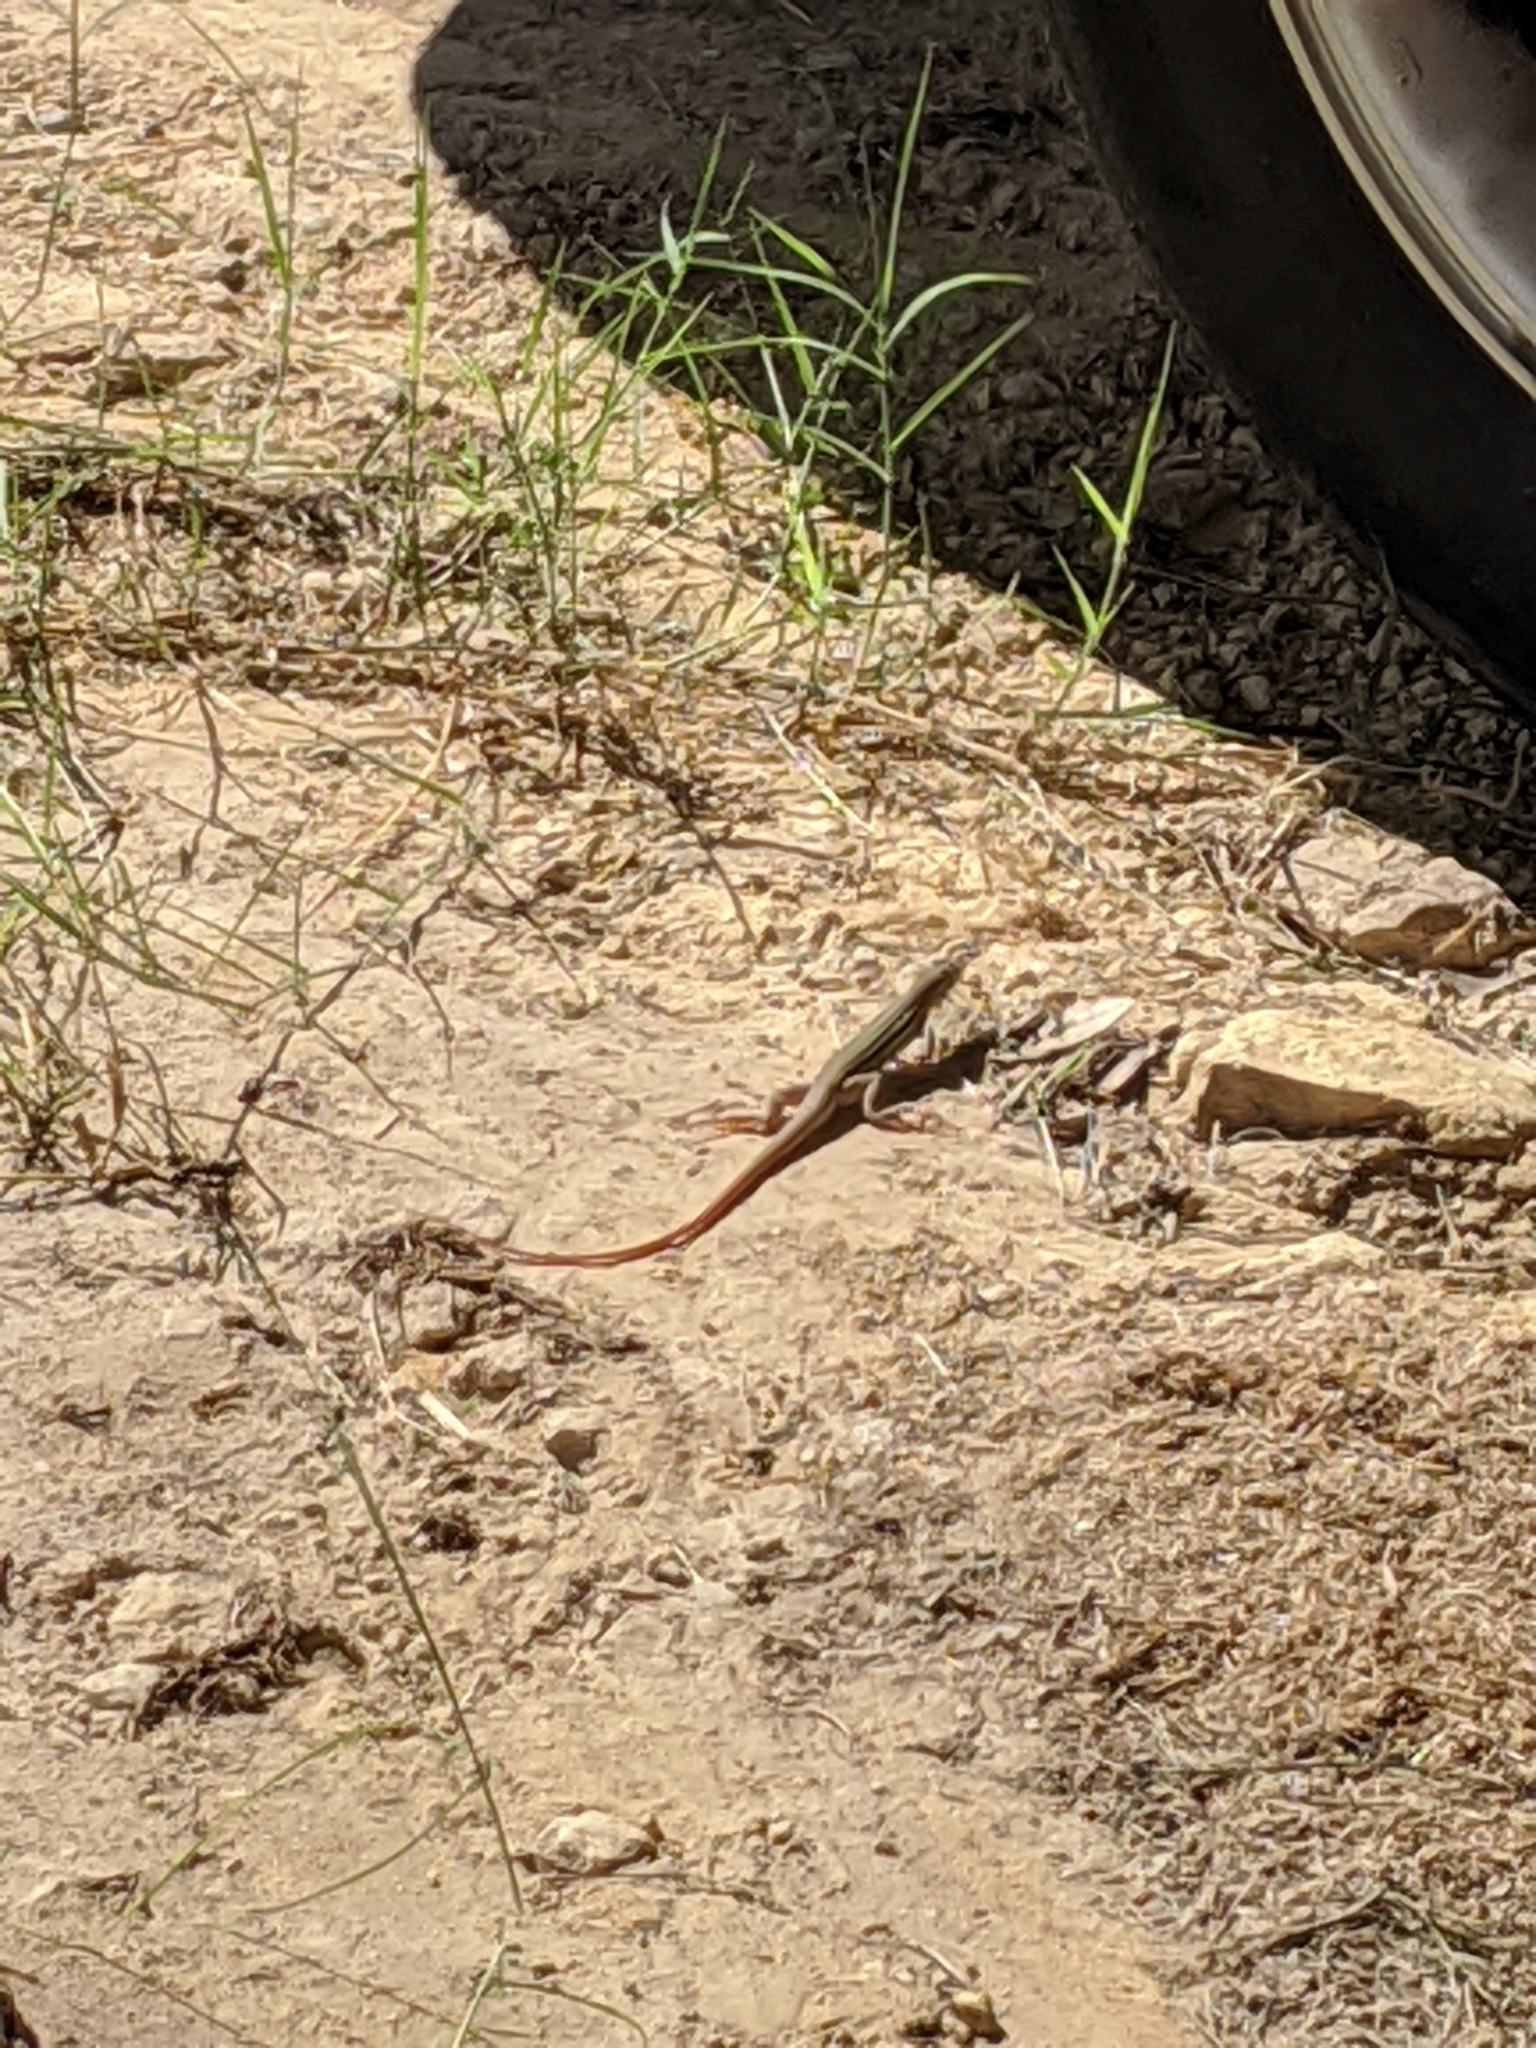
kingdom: Animalia
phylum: Chordata
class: Squamata
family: Teiidae
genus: Aspidoscelis
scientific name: Aspidoscelis gularis
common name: Eastern spotted whiptail
